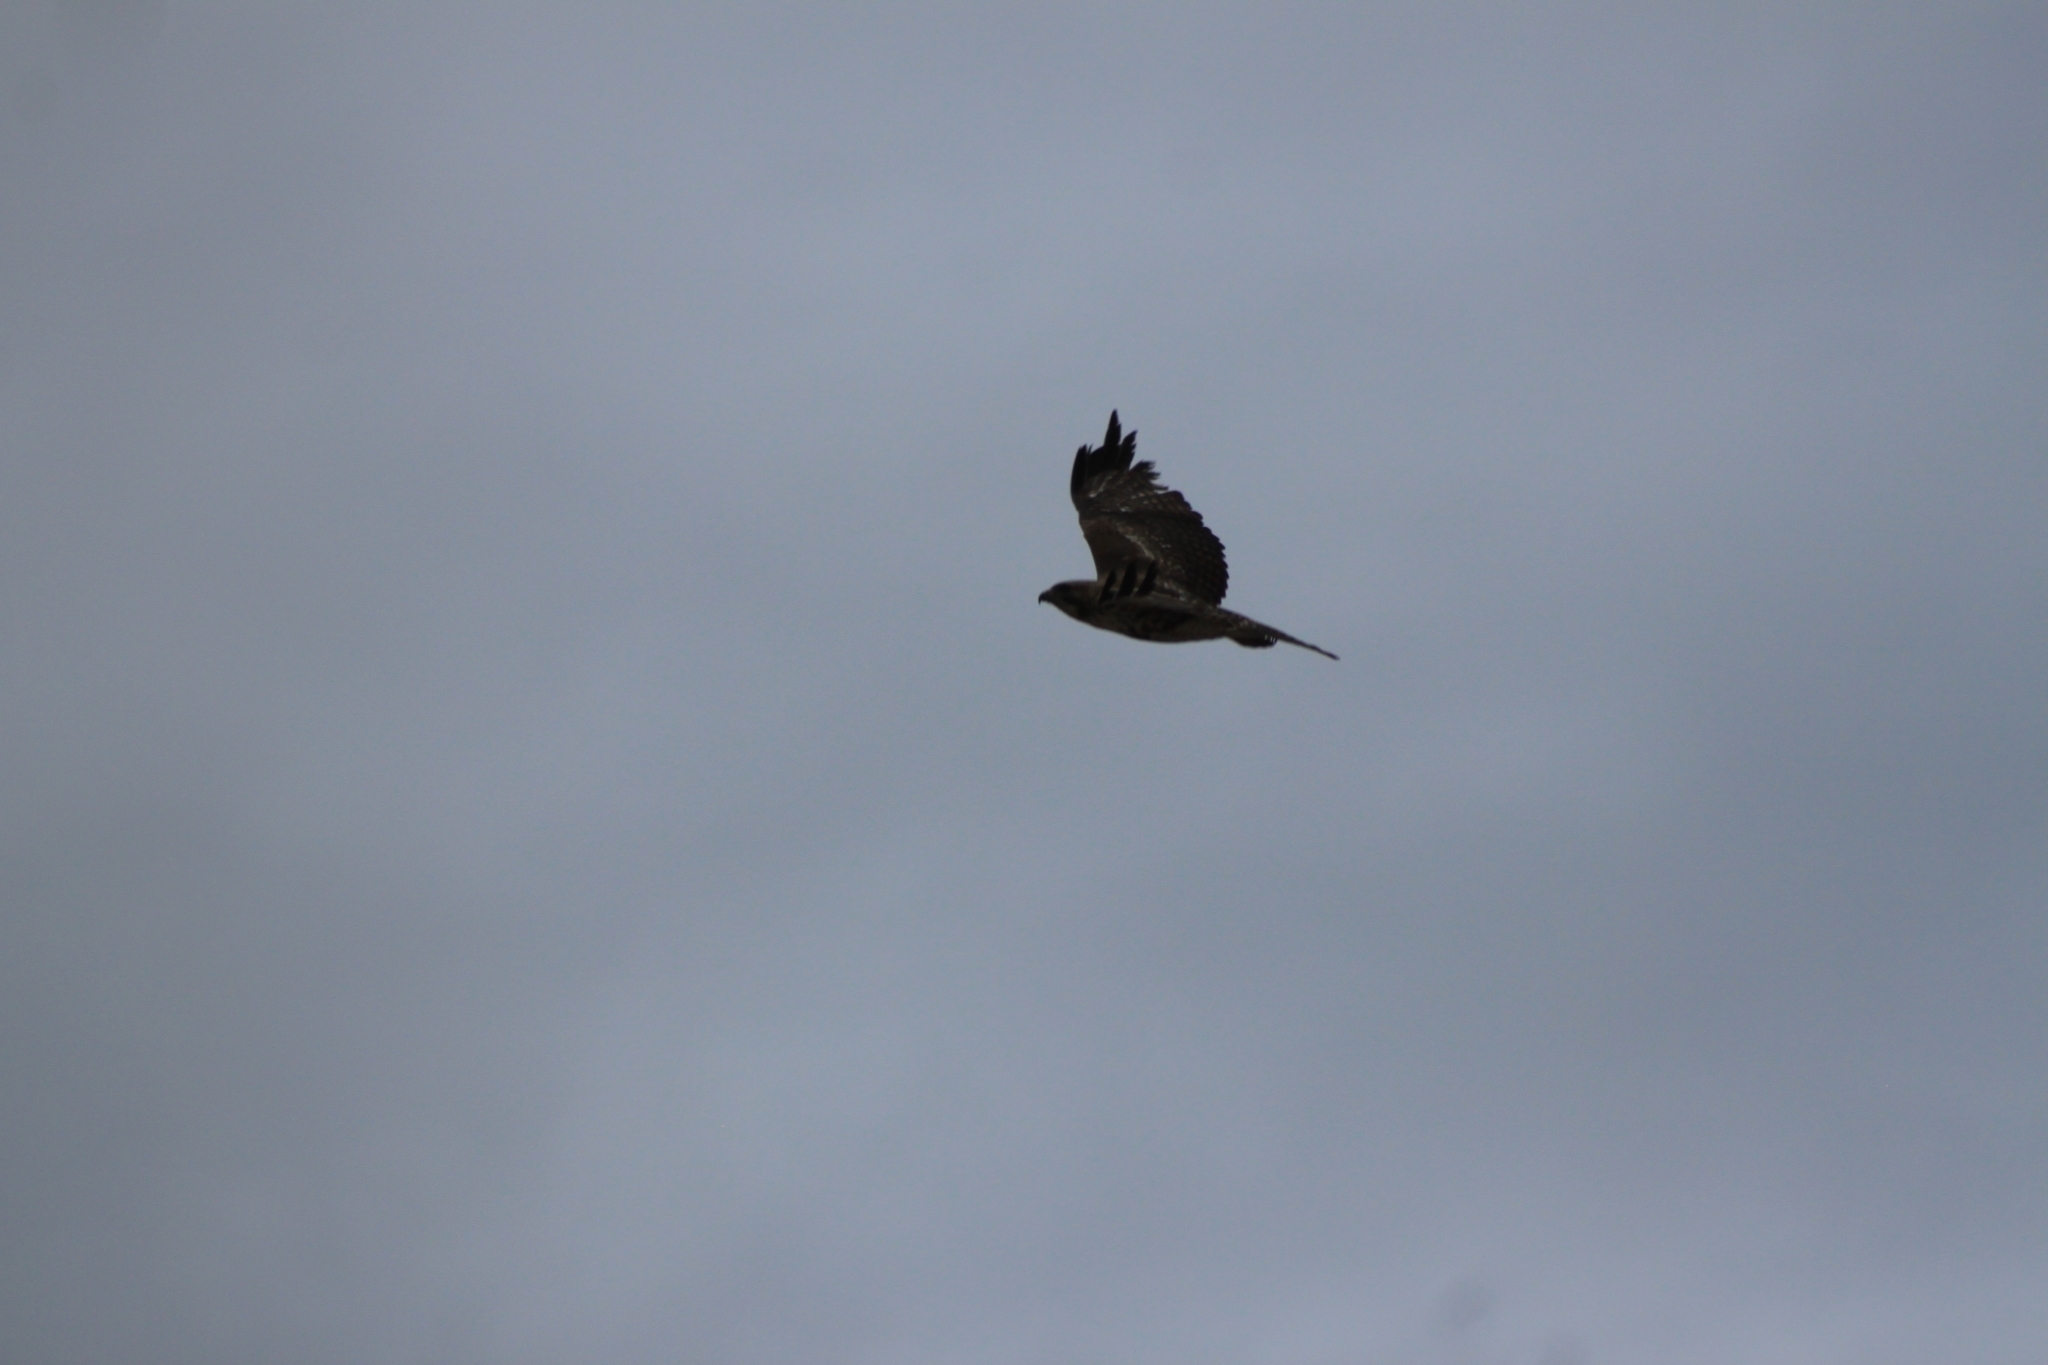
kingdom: Animalia
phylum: Chordata
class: Aves
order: Accipitriformes
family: Accipitridae
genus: Buteo
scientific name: Buteo jamaicensis
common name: Red-tailed hawk
